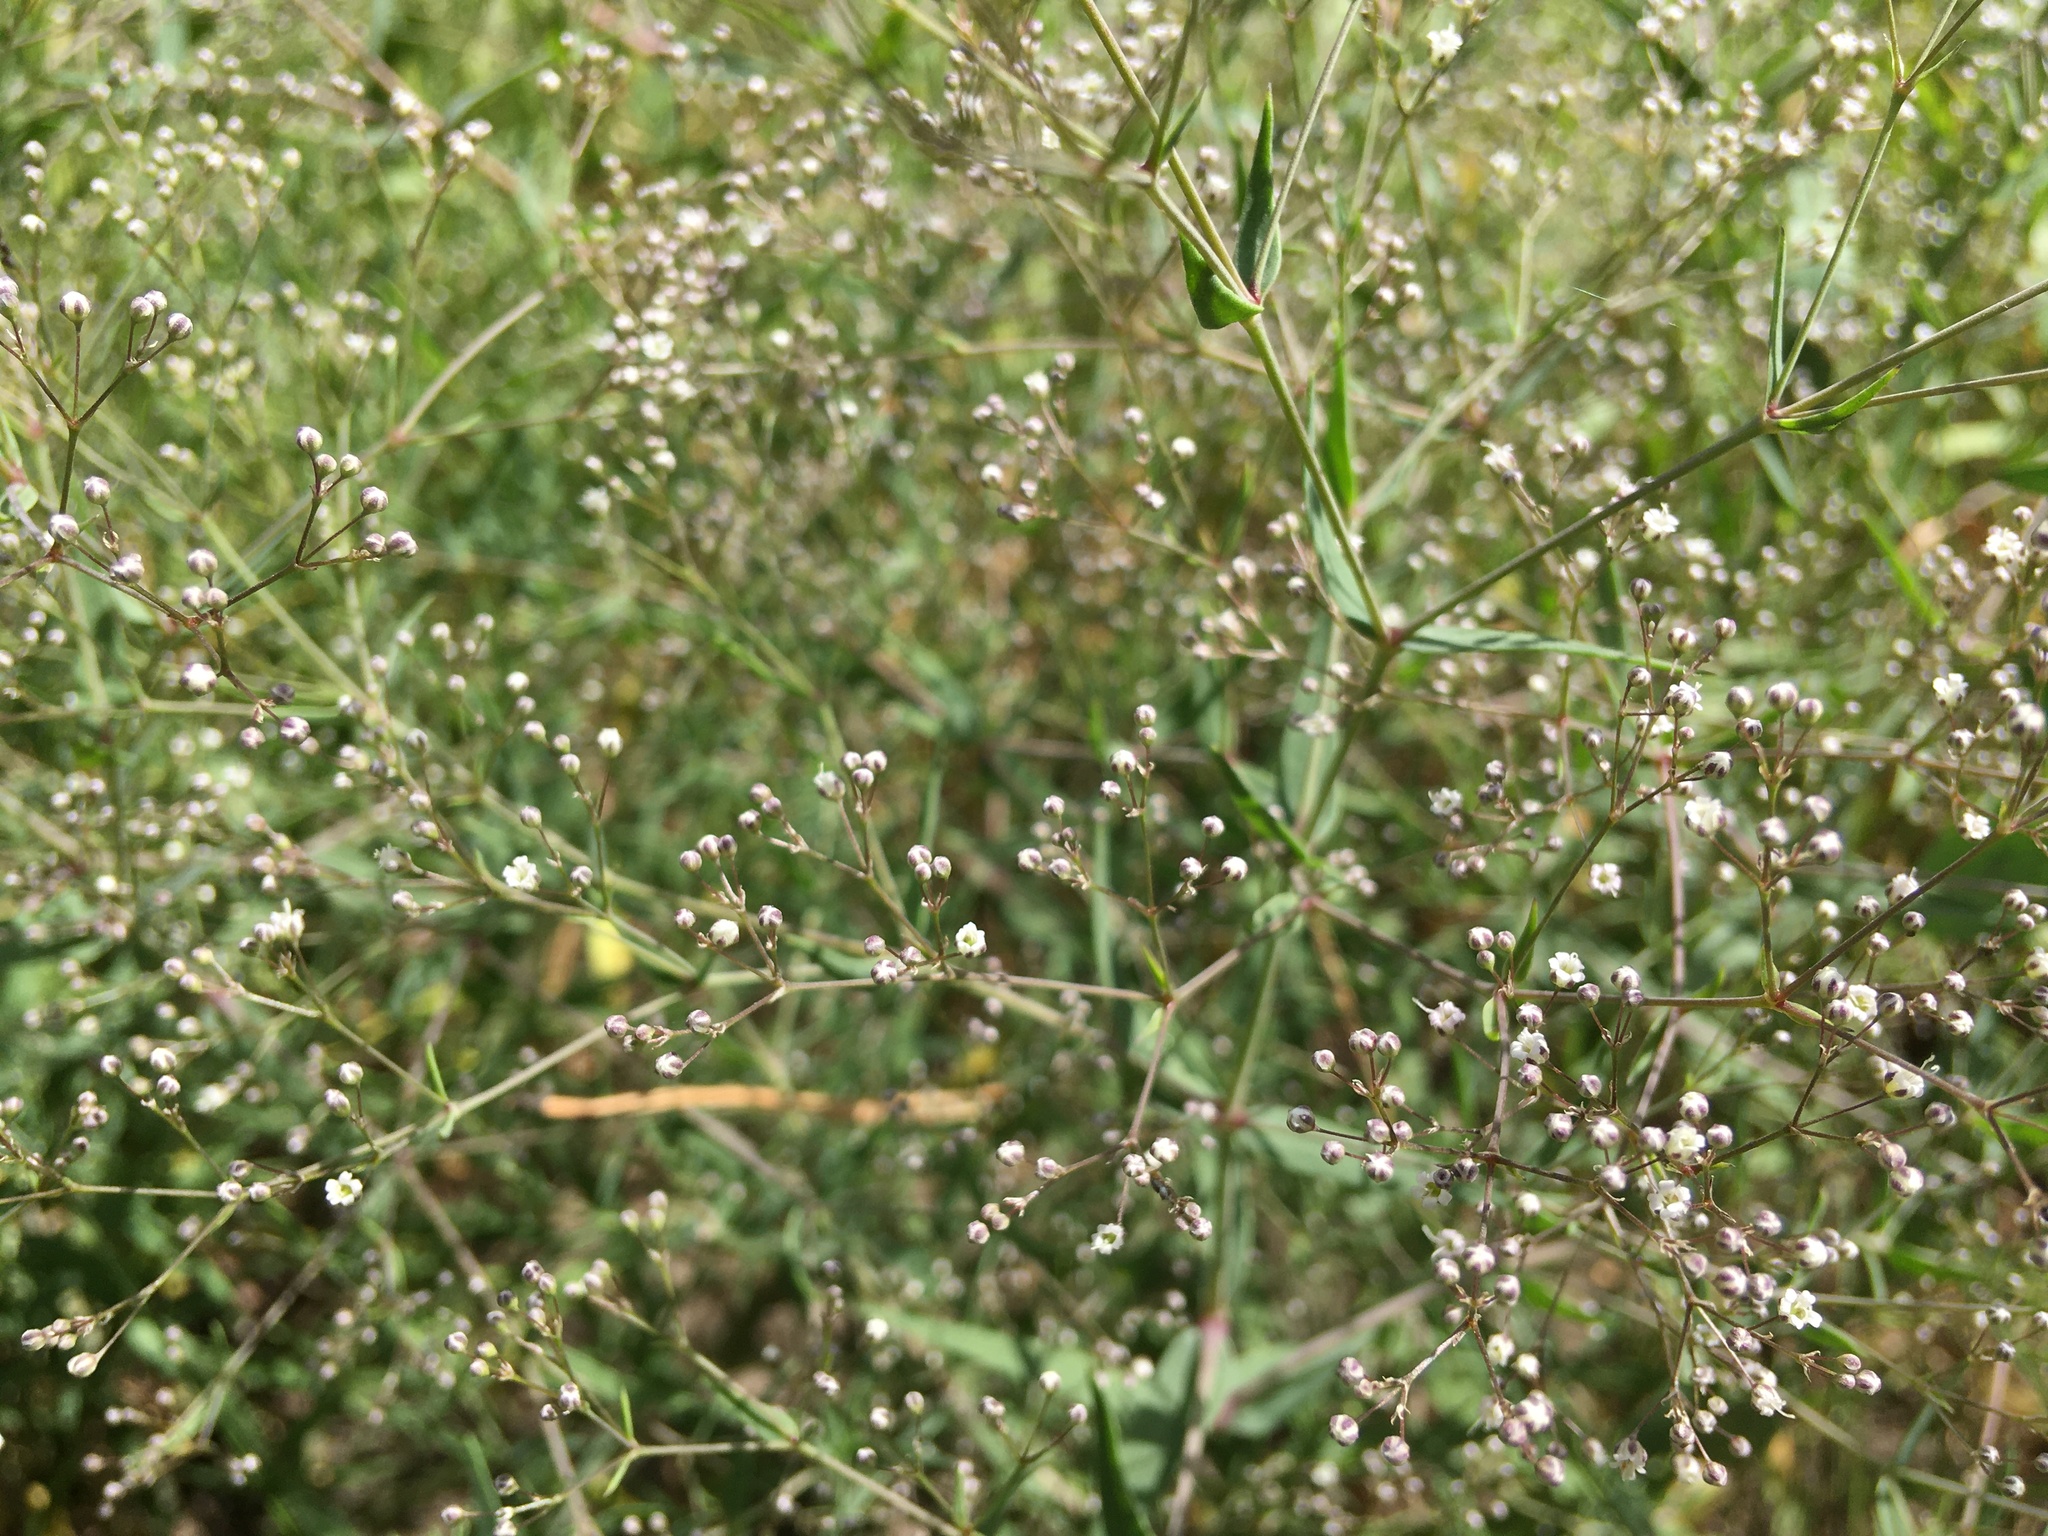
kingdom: Plantae
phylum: Tracheophyta
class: Magnoliopsida
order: Caryophyllales
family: Caryophyllaceae
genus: Gypsophila
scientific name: Gypsophila paniculata
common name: Baby's-breath
